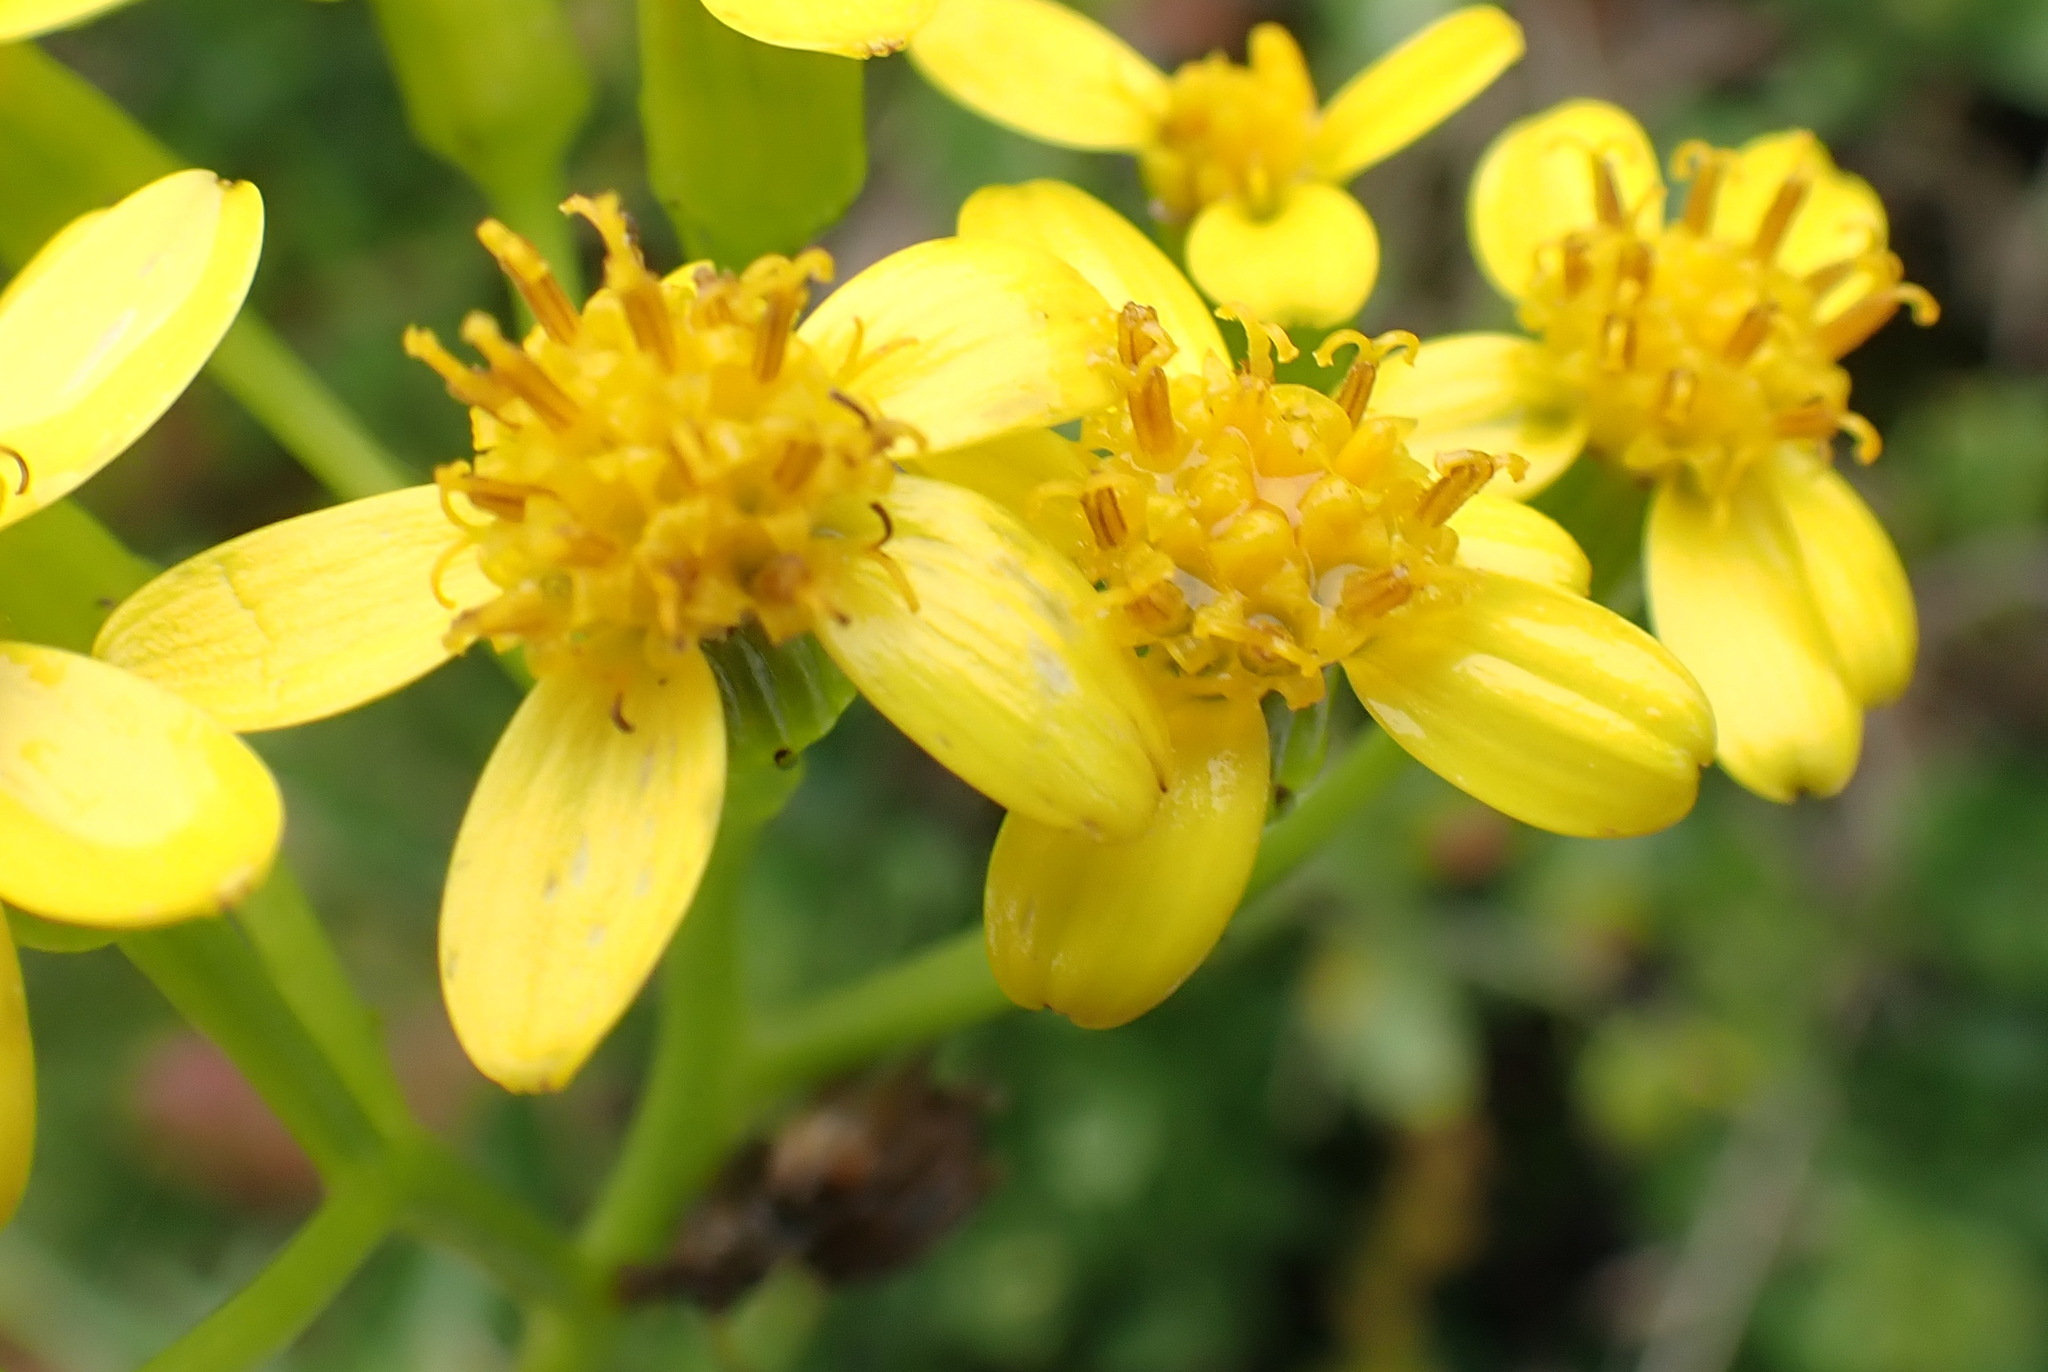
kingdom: Plantae
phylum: Tracheophyta
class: Magnoliopsida
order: Asterales
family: Asteraceae
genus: Senecio
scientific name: Senecio angulatus
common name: Climbing groundsel
